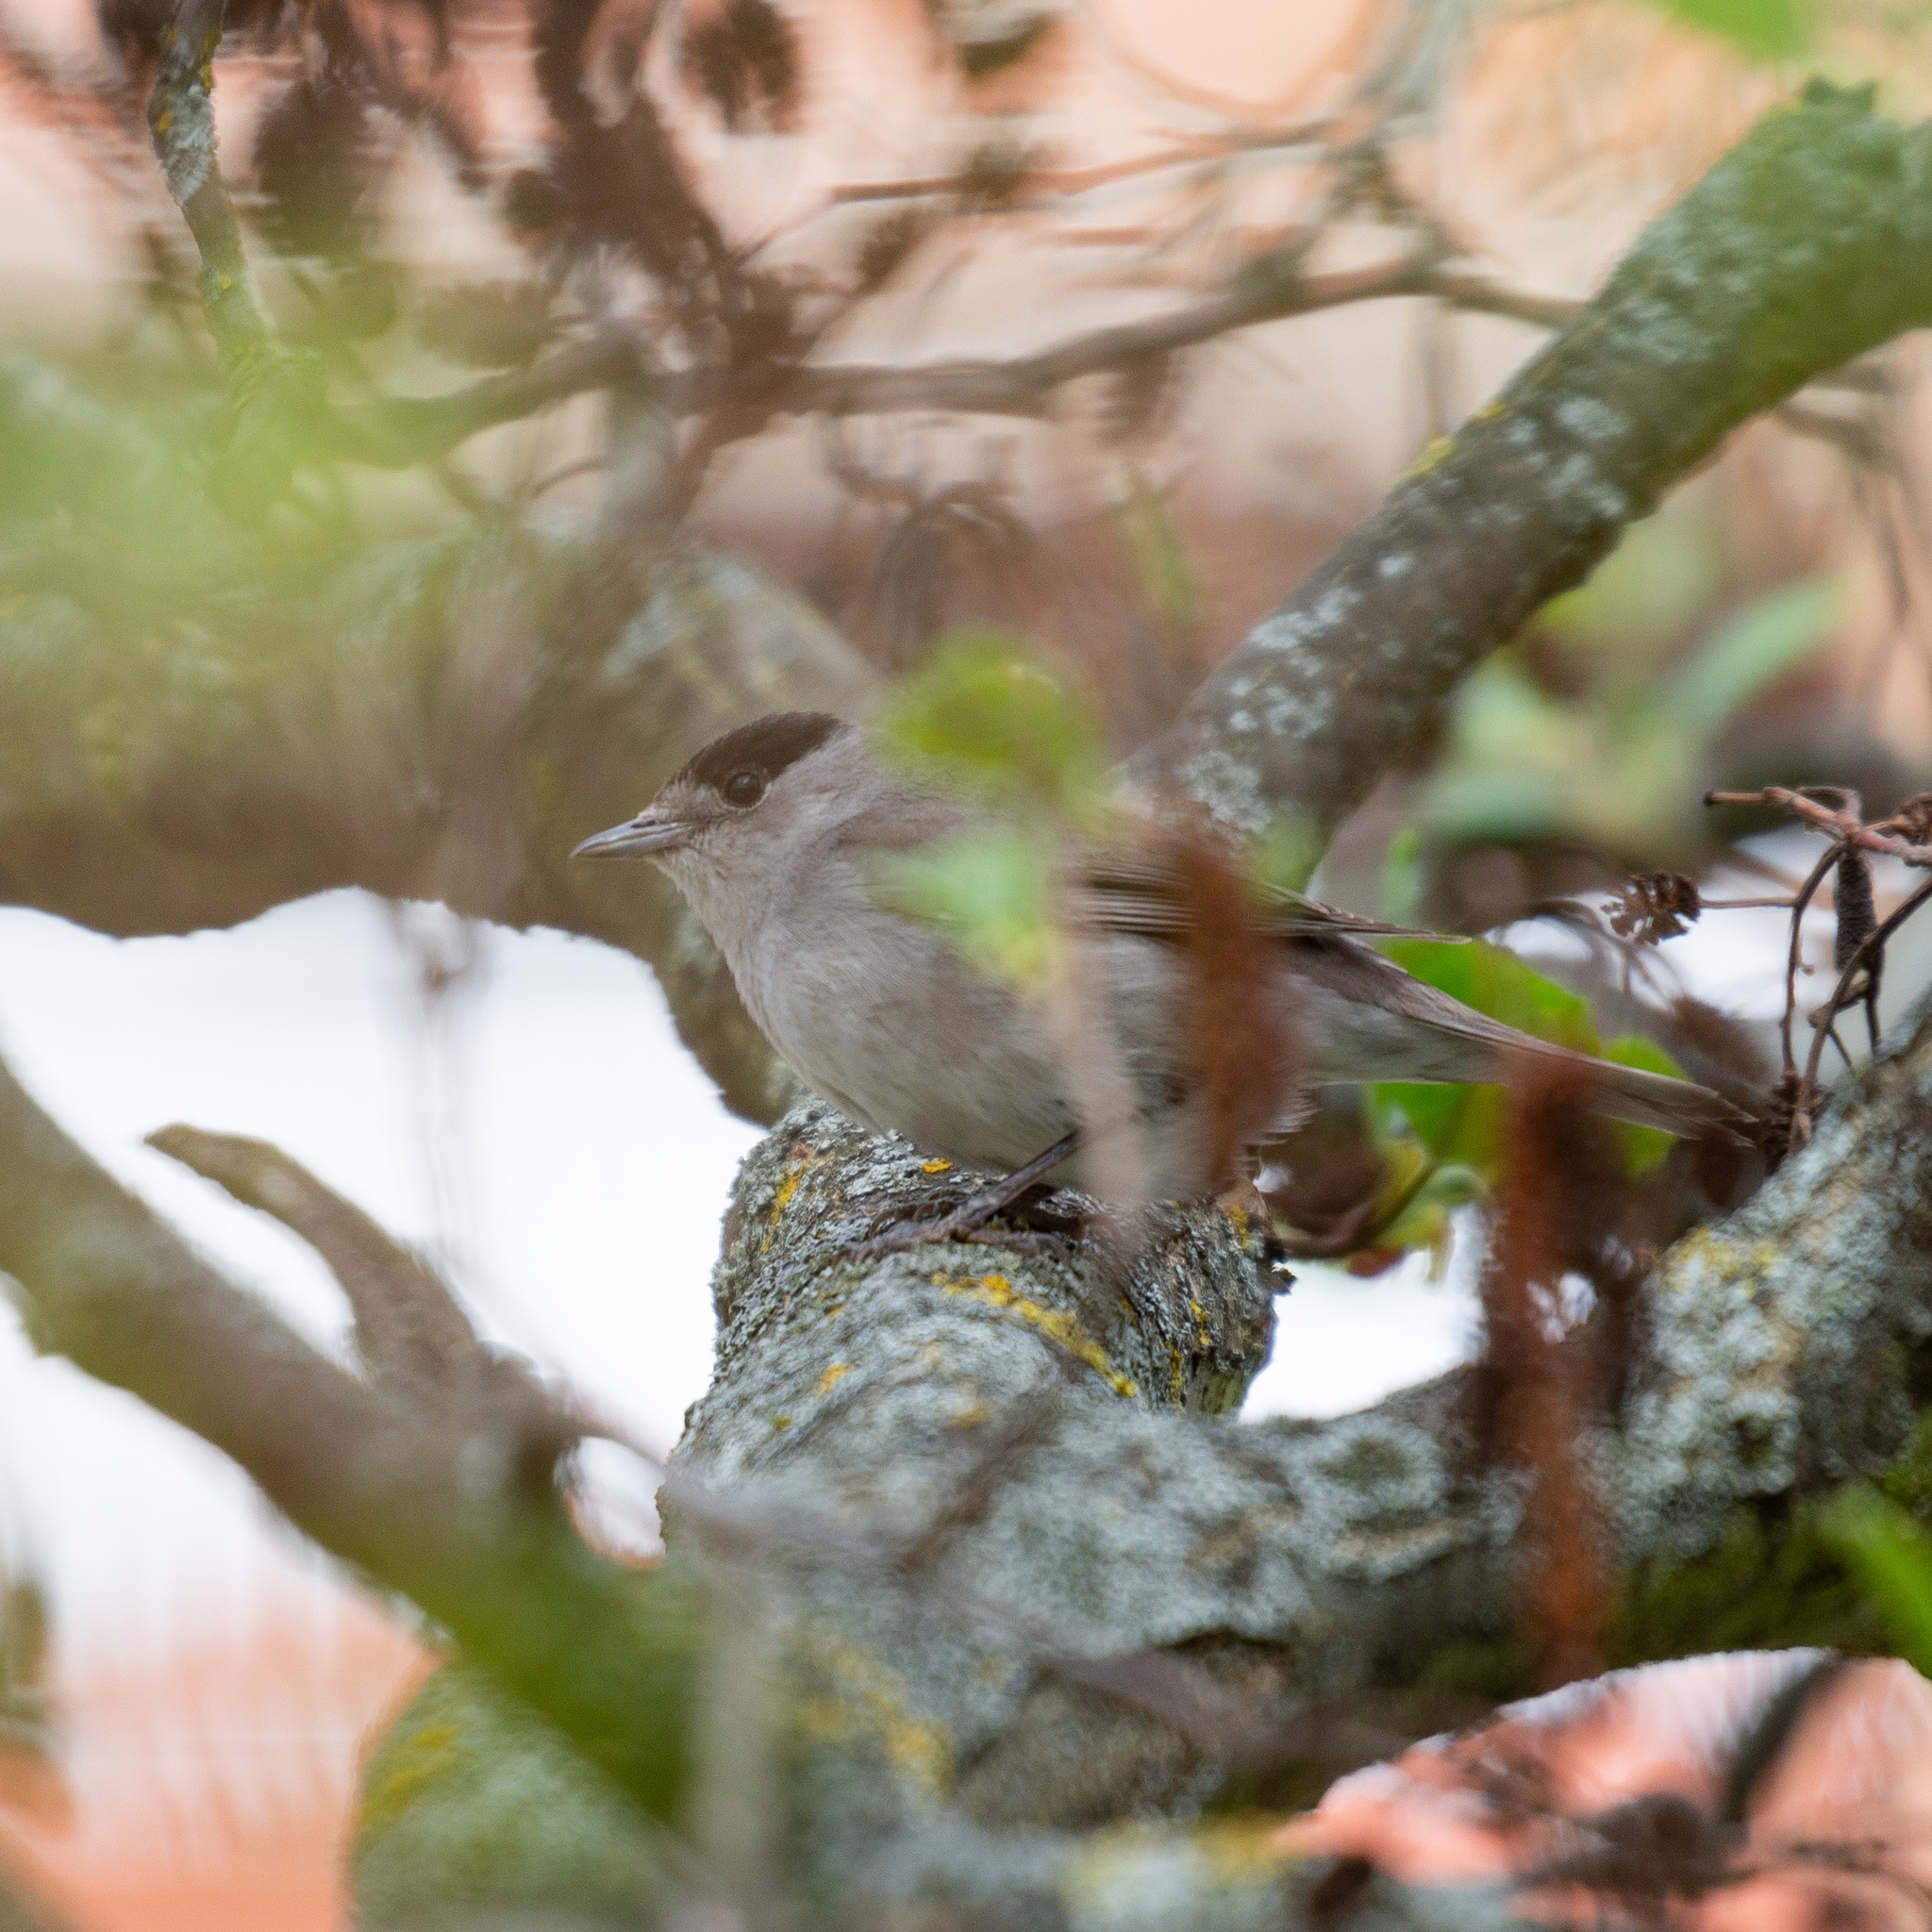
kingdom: Animalia
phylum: Chordata
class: Aves
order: Passeriformes
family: Sylviidae
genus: Sylvia
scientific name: Sylvia atricapilla
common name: Eurasian blackcap
